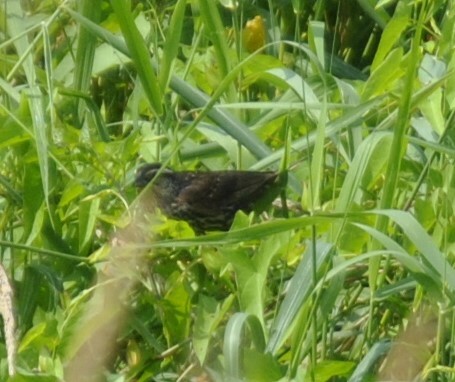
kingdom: Animalia
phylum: Chordata
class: Aves
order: Passeriformes
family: Icteridae
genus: Agelaius
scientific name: Agelaius phoeniceus
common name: Red-winged blackbird
